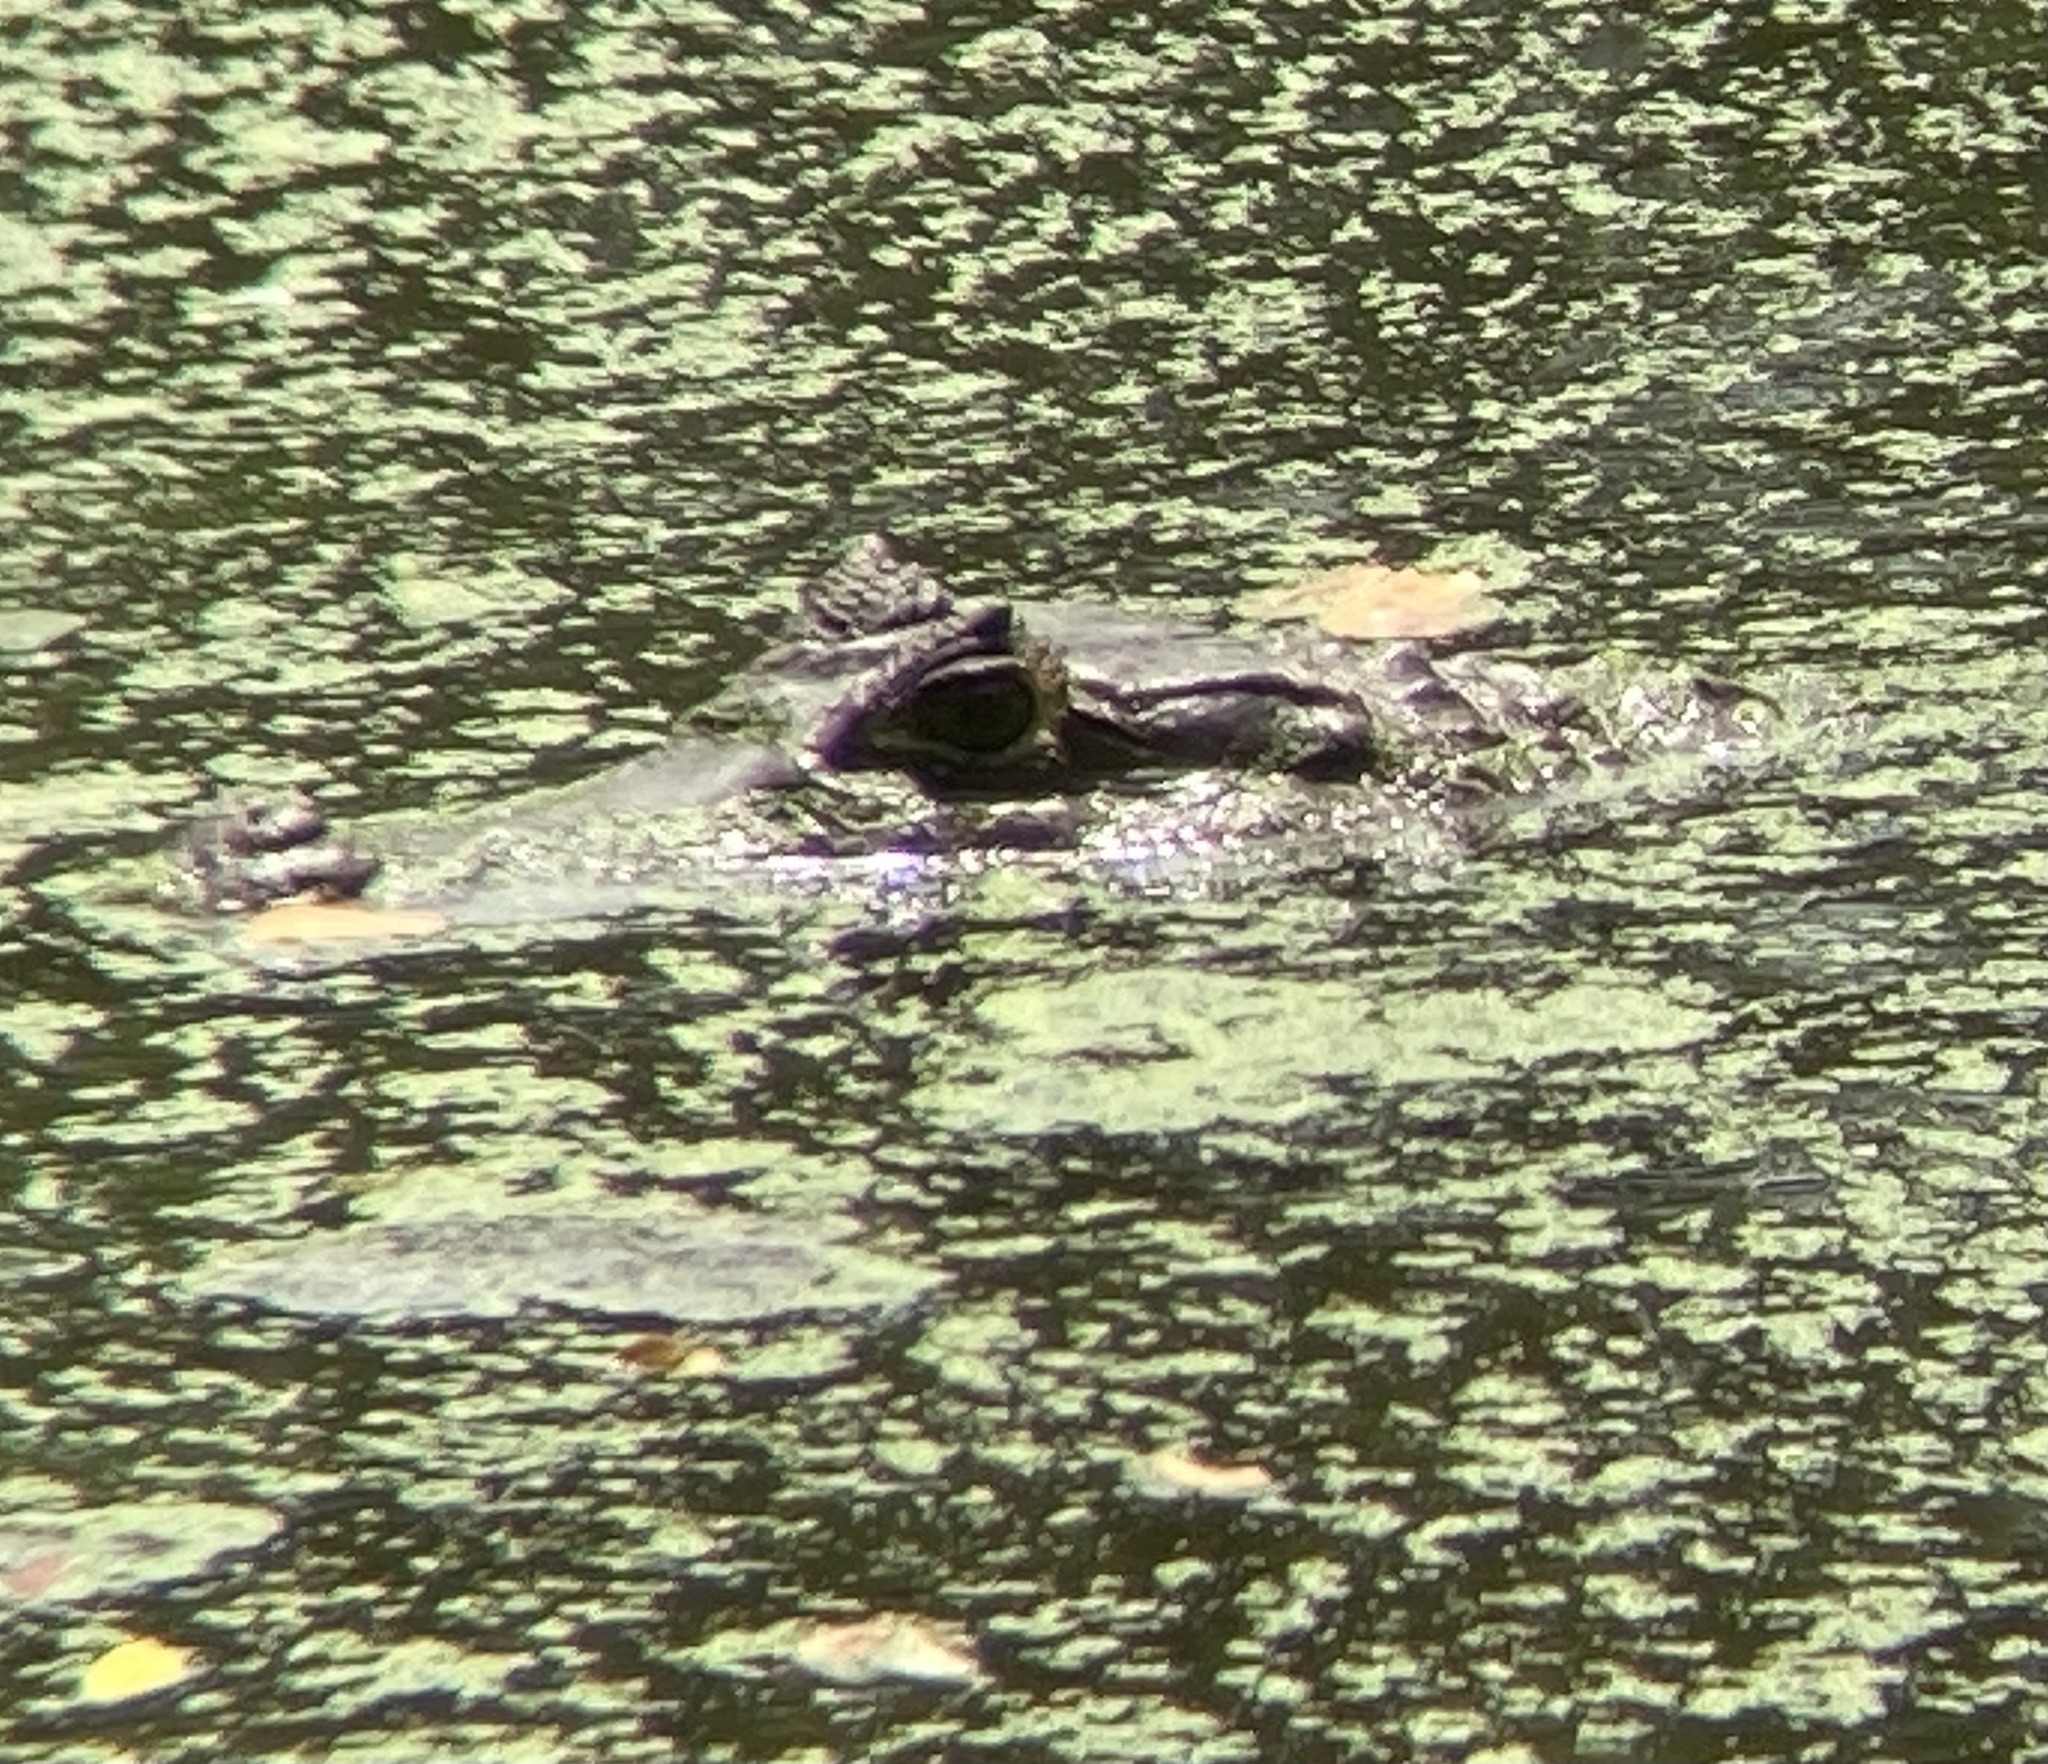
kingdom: Animalia
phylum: Chordata
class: Crocodylia
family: Alligatoridae
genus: Caiman
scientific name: Caiman crocodilus
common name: Common caiman
